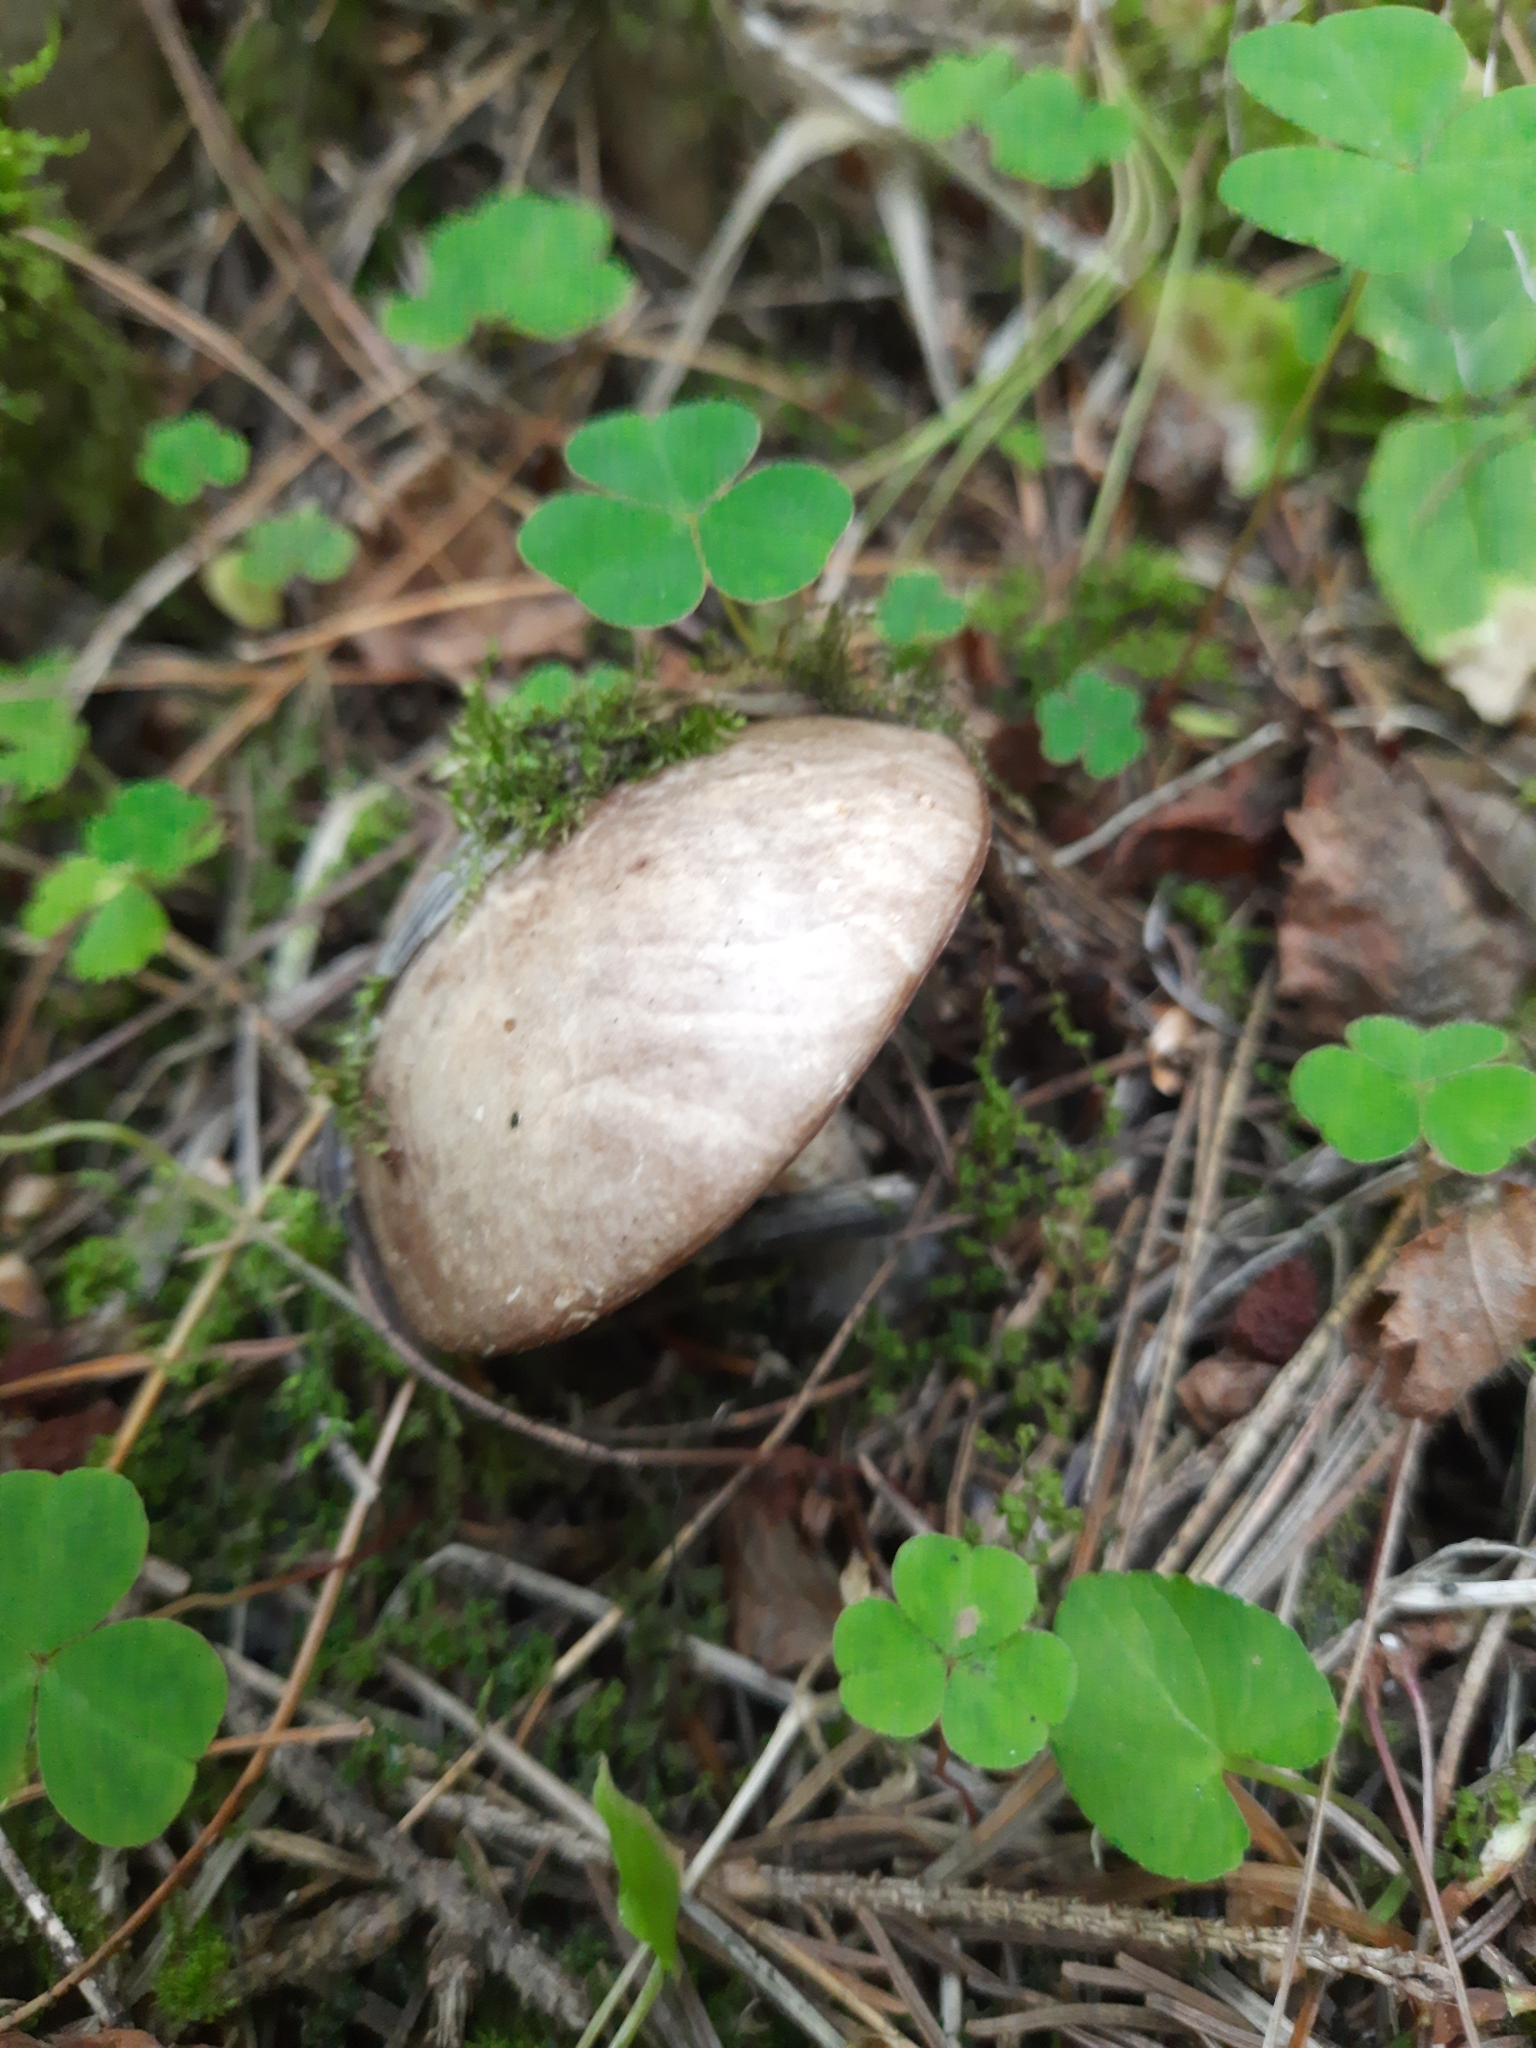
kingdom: Fungi
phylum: Basidiomycota
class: Agaricomycetes
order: Boletales
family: Suillaceae
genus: Suillus
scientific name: Suillus placidus
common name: Slippery white bolete
